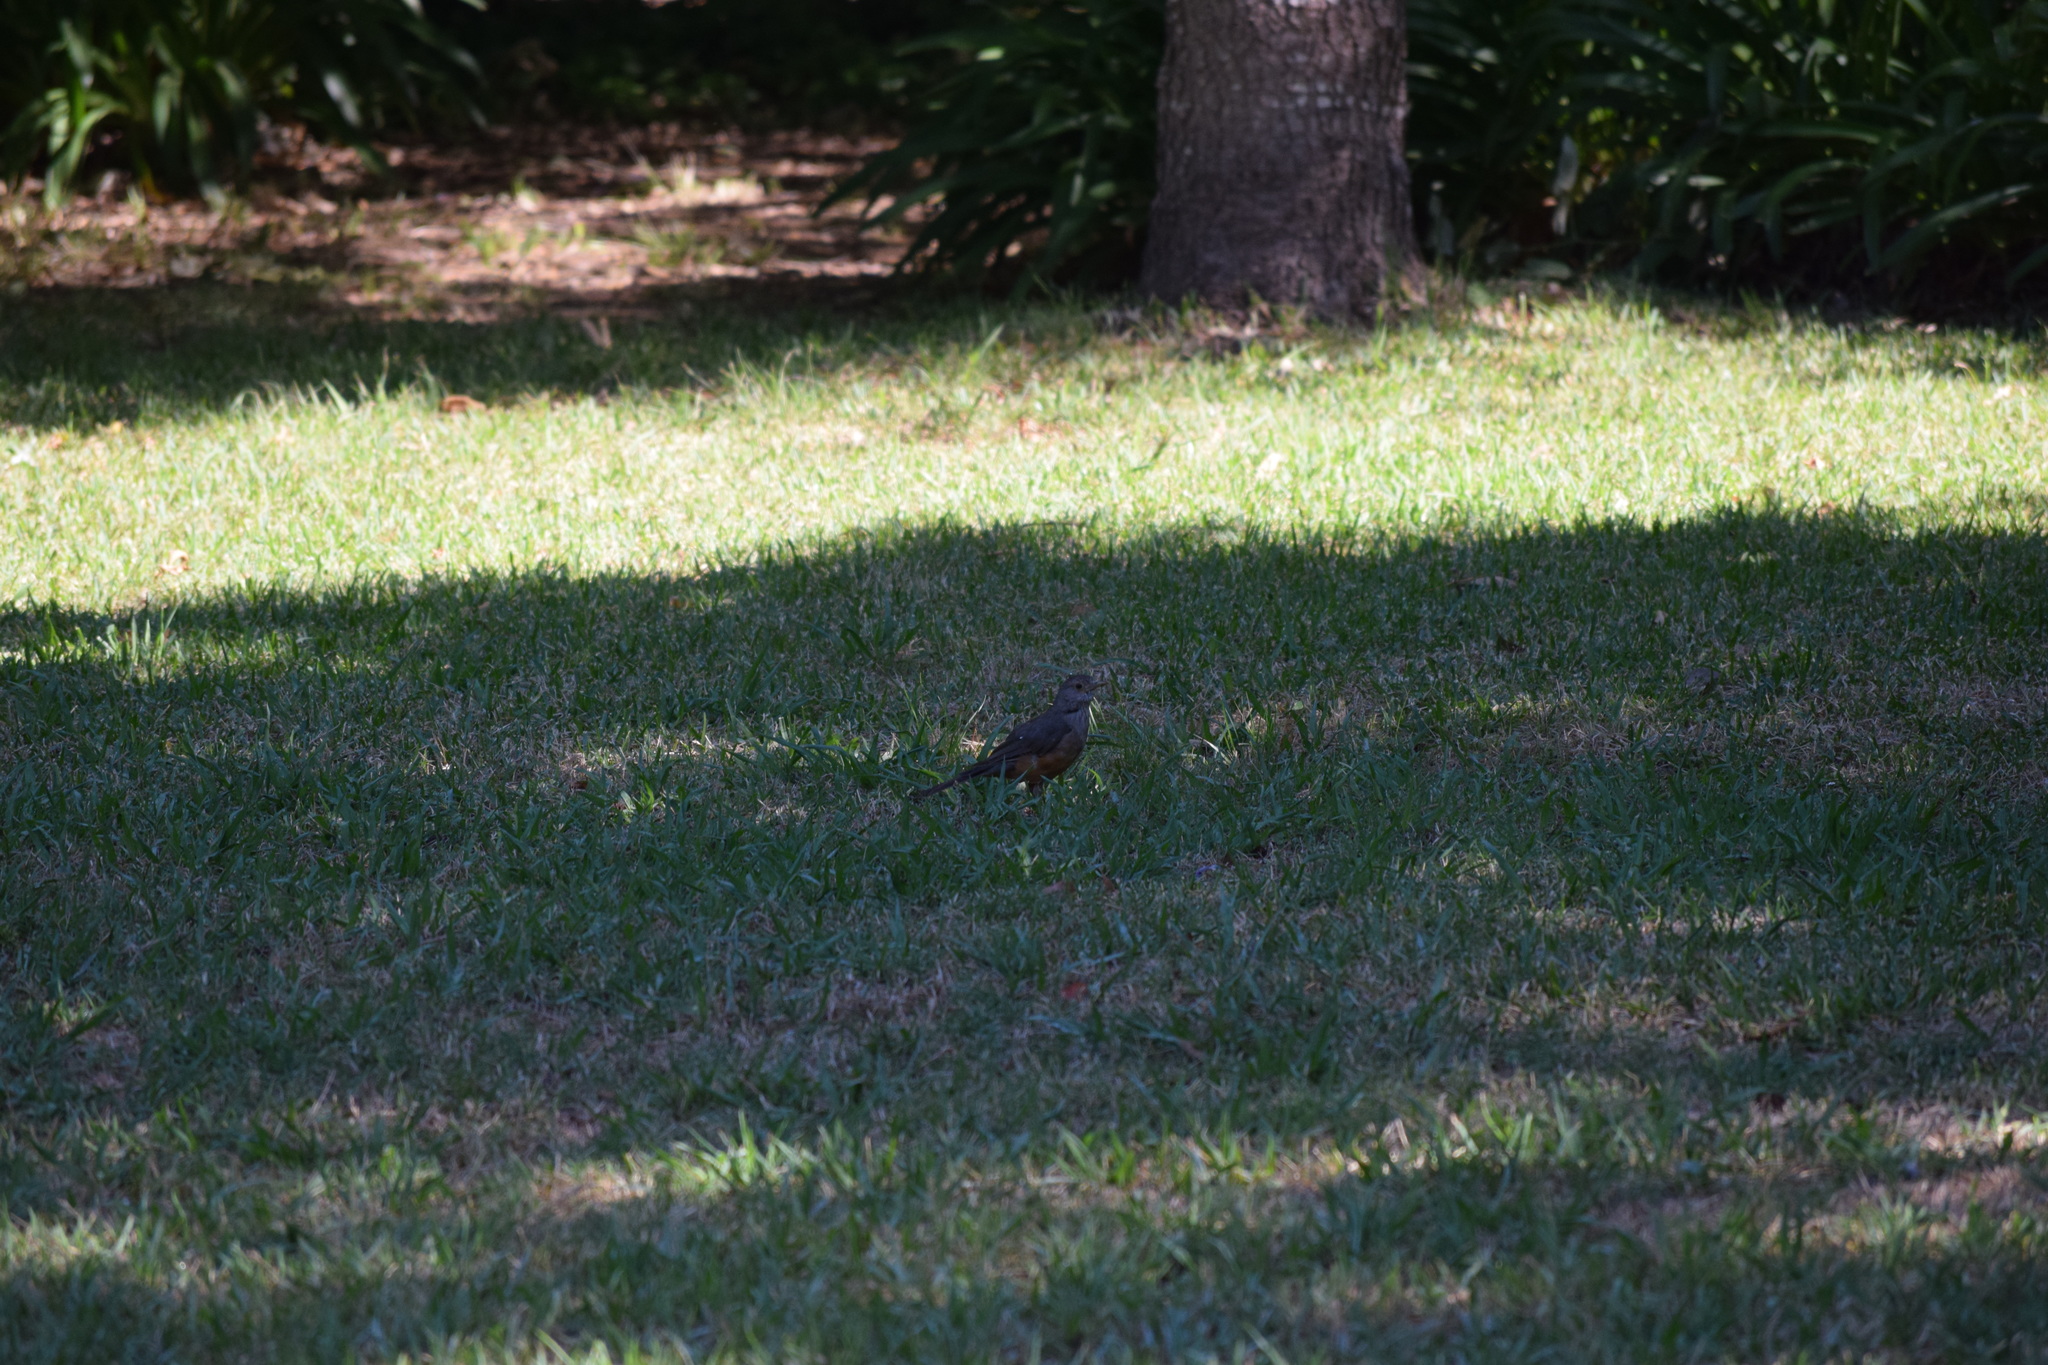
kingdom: Animalia
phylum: Chordata
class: Aves
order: Passeriformes
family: Turdidae
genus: Turdus
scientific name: Turdus rufiventris
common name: Rufous-bellied thrush
